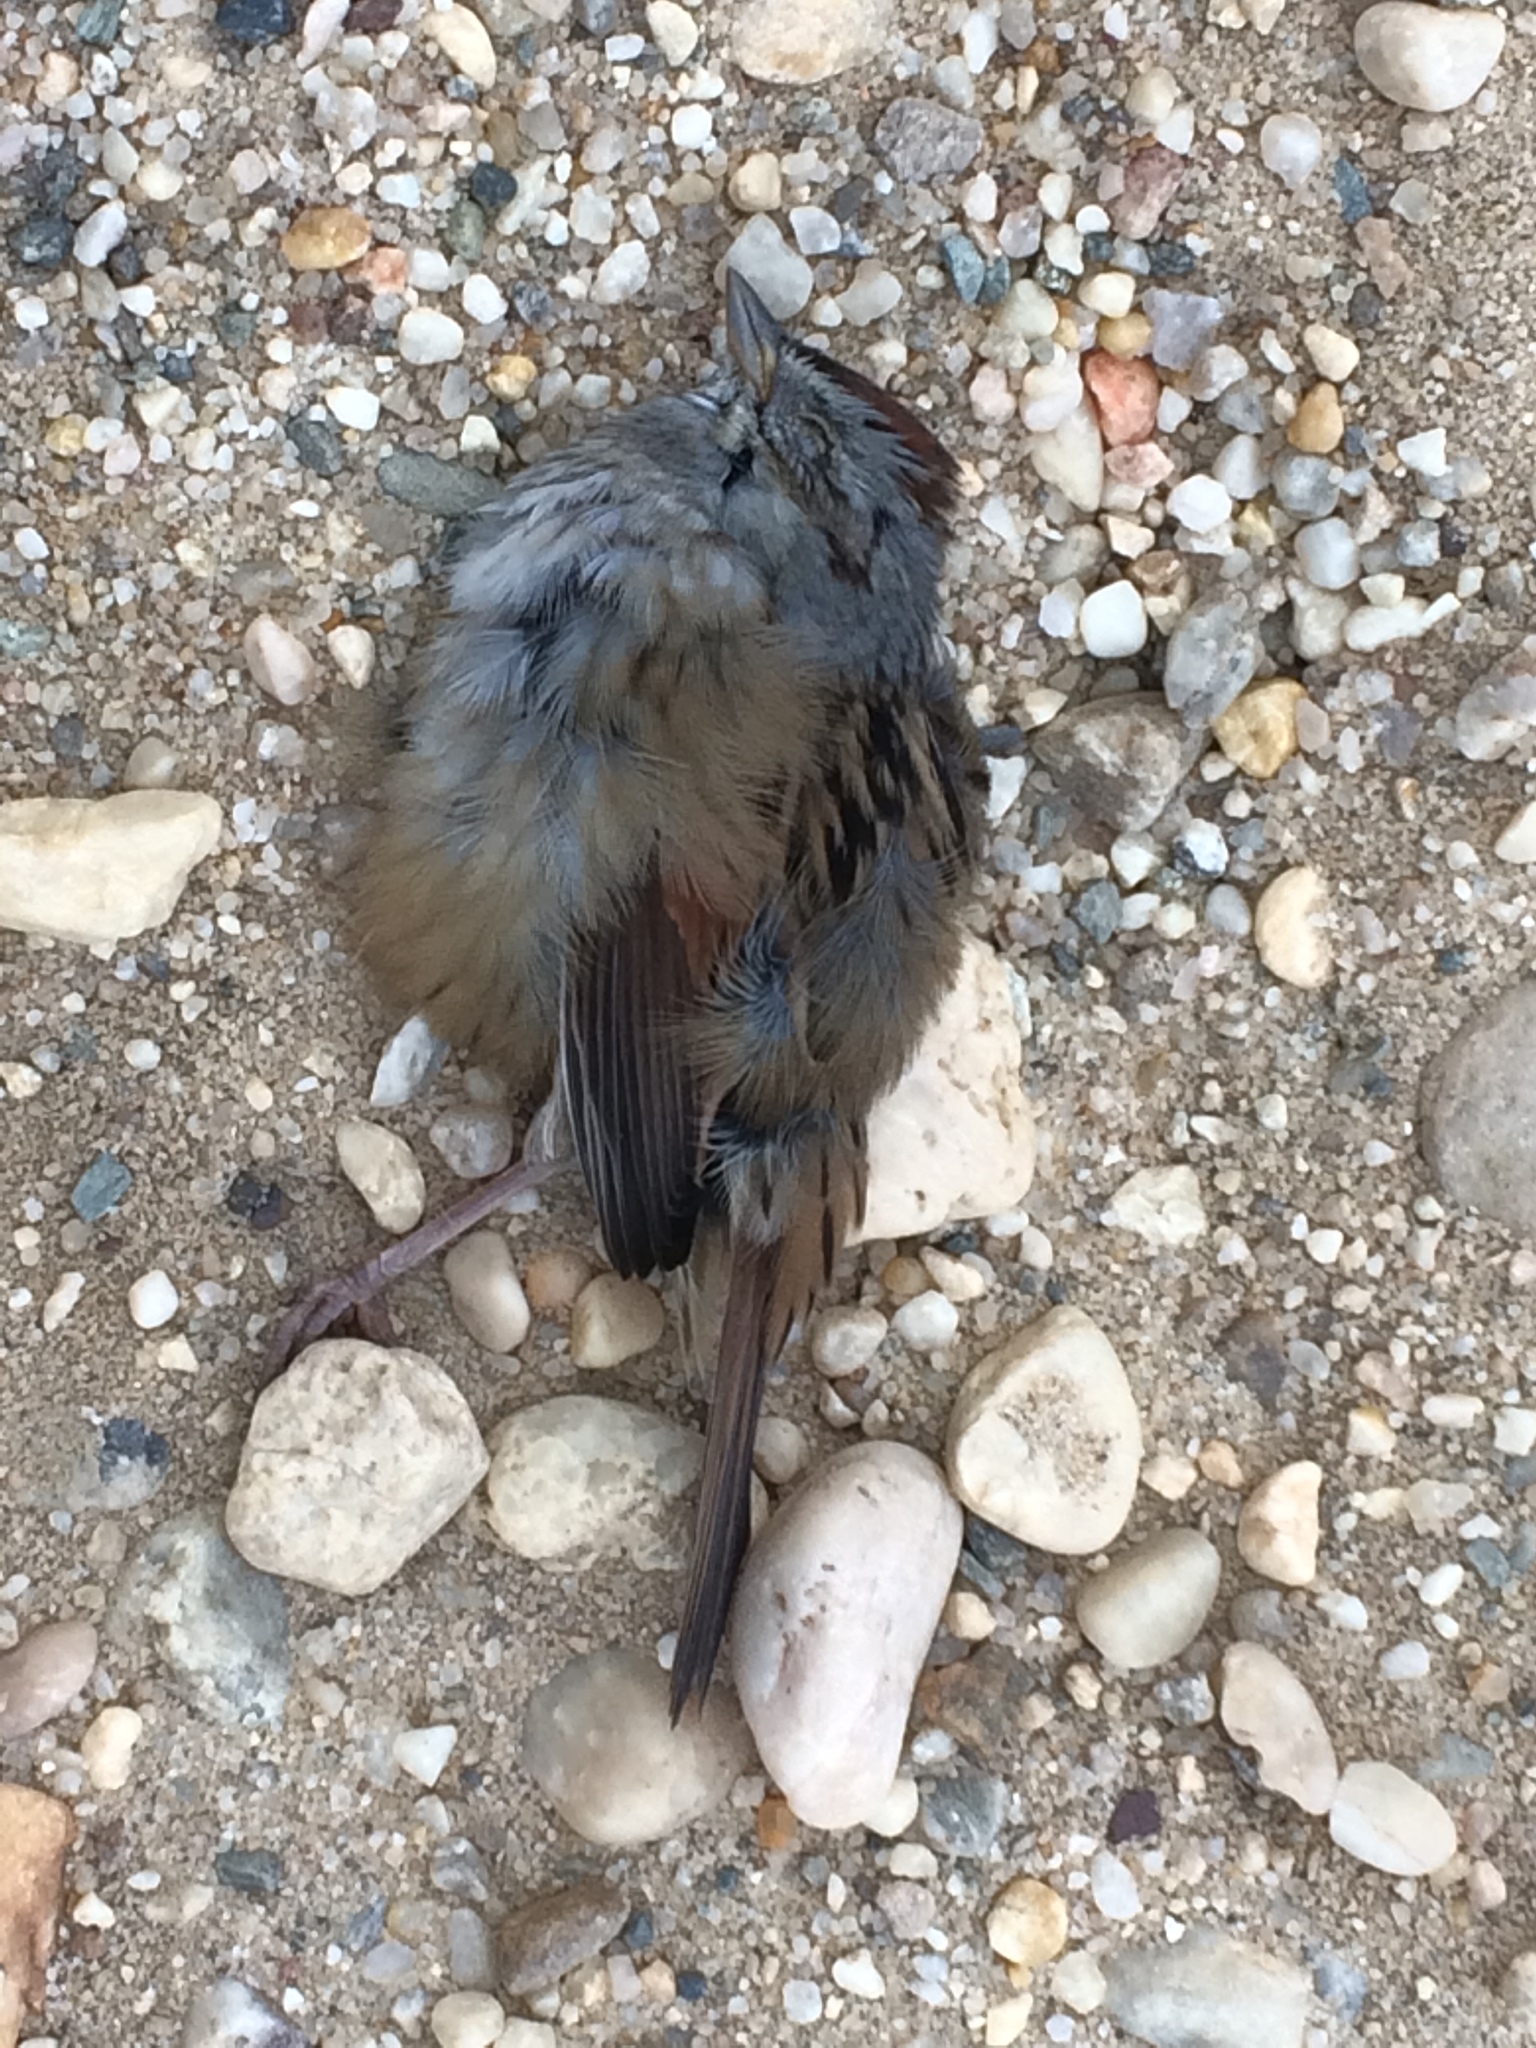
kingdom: Animalia
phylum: Chordata
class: Aves
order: Passeriformes
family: Passerellidae
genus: Melospiza
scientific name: Melospiza georgiana
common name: Swamp sparrow
